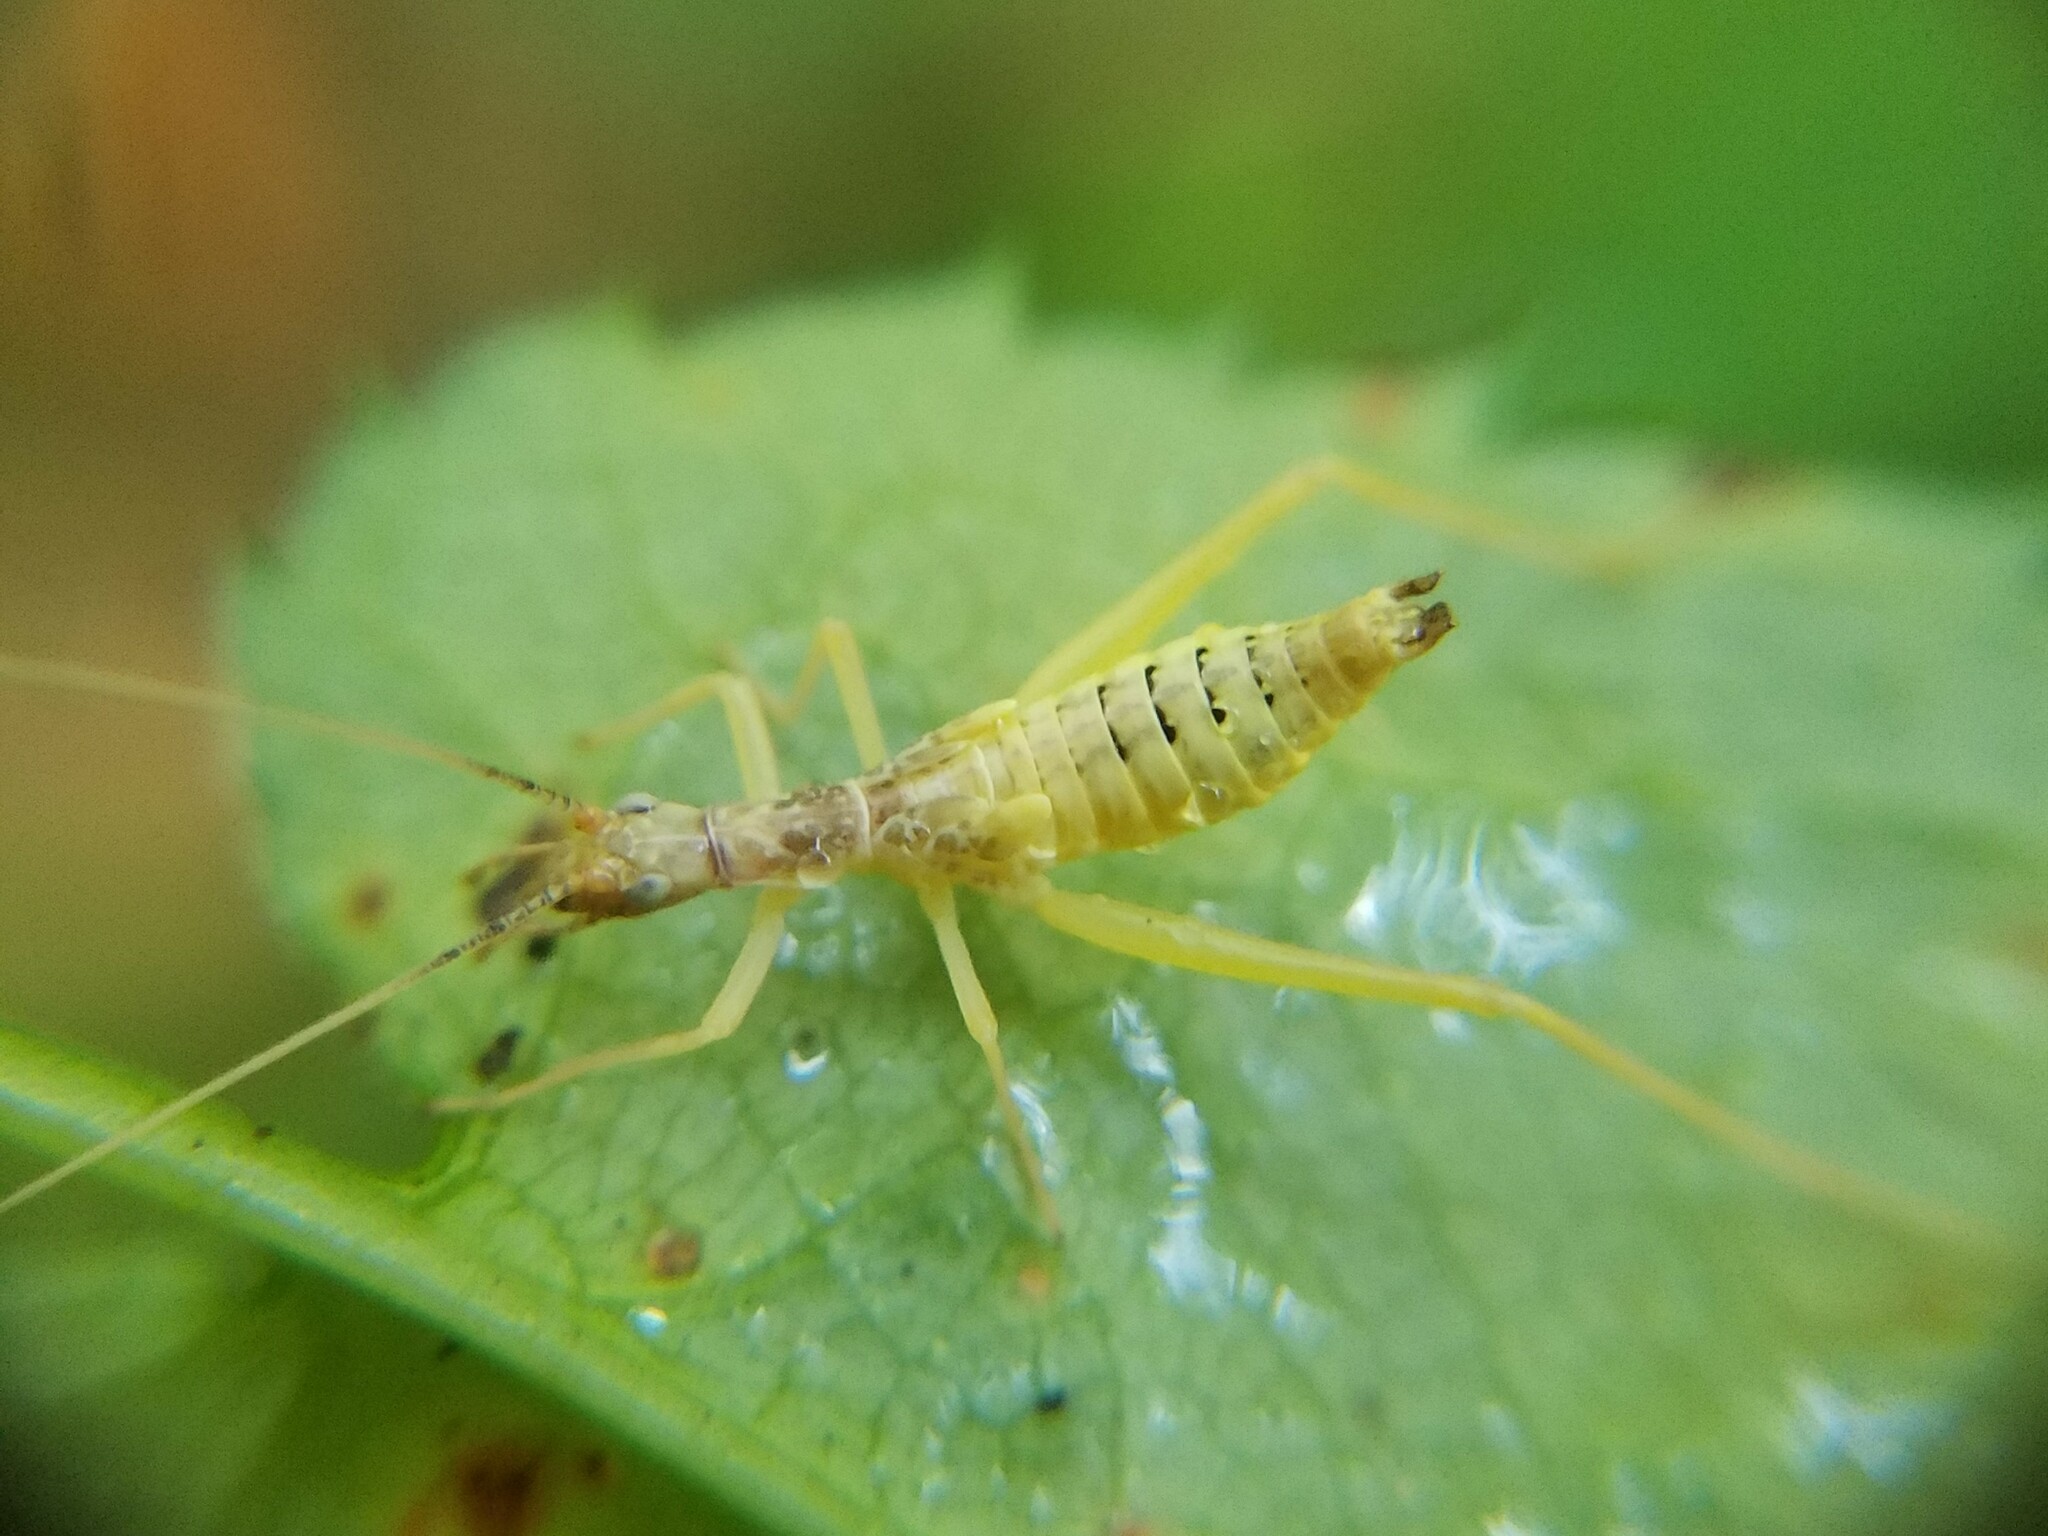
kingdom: Animalia
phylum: Arthropoda
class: Insecta
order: Orthoptera
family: Gryllidae
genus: Neoxabea
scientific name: Neoxabea bipunctata
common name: Two-spotted tree cricket
